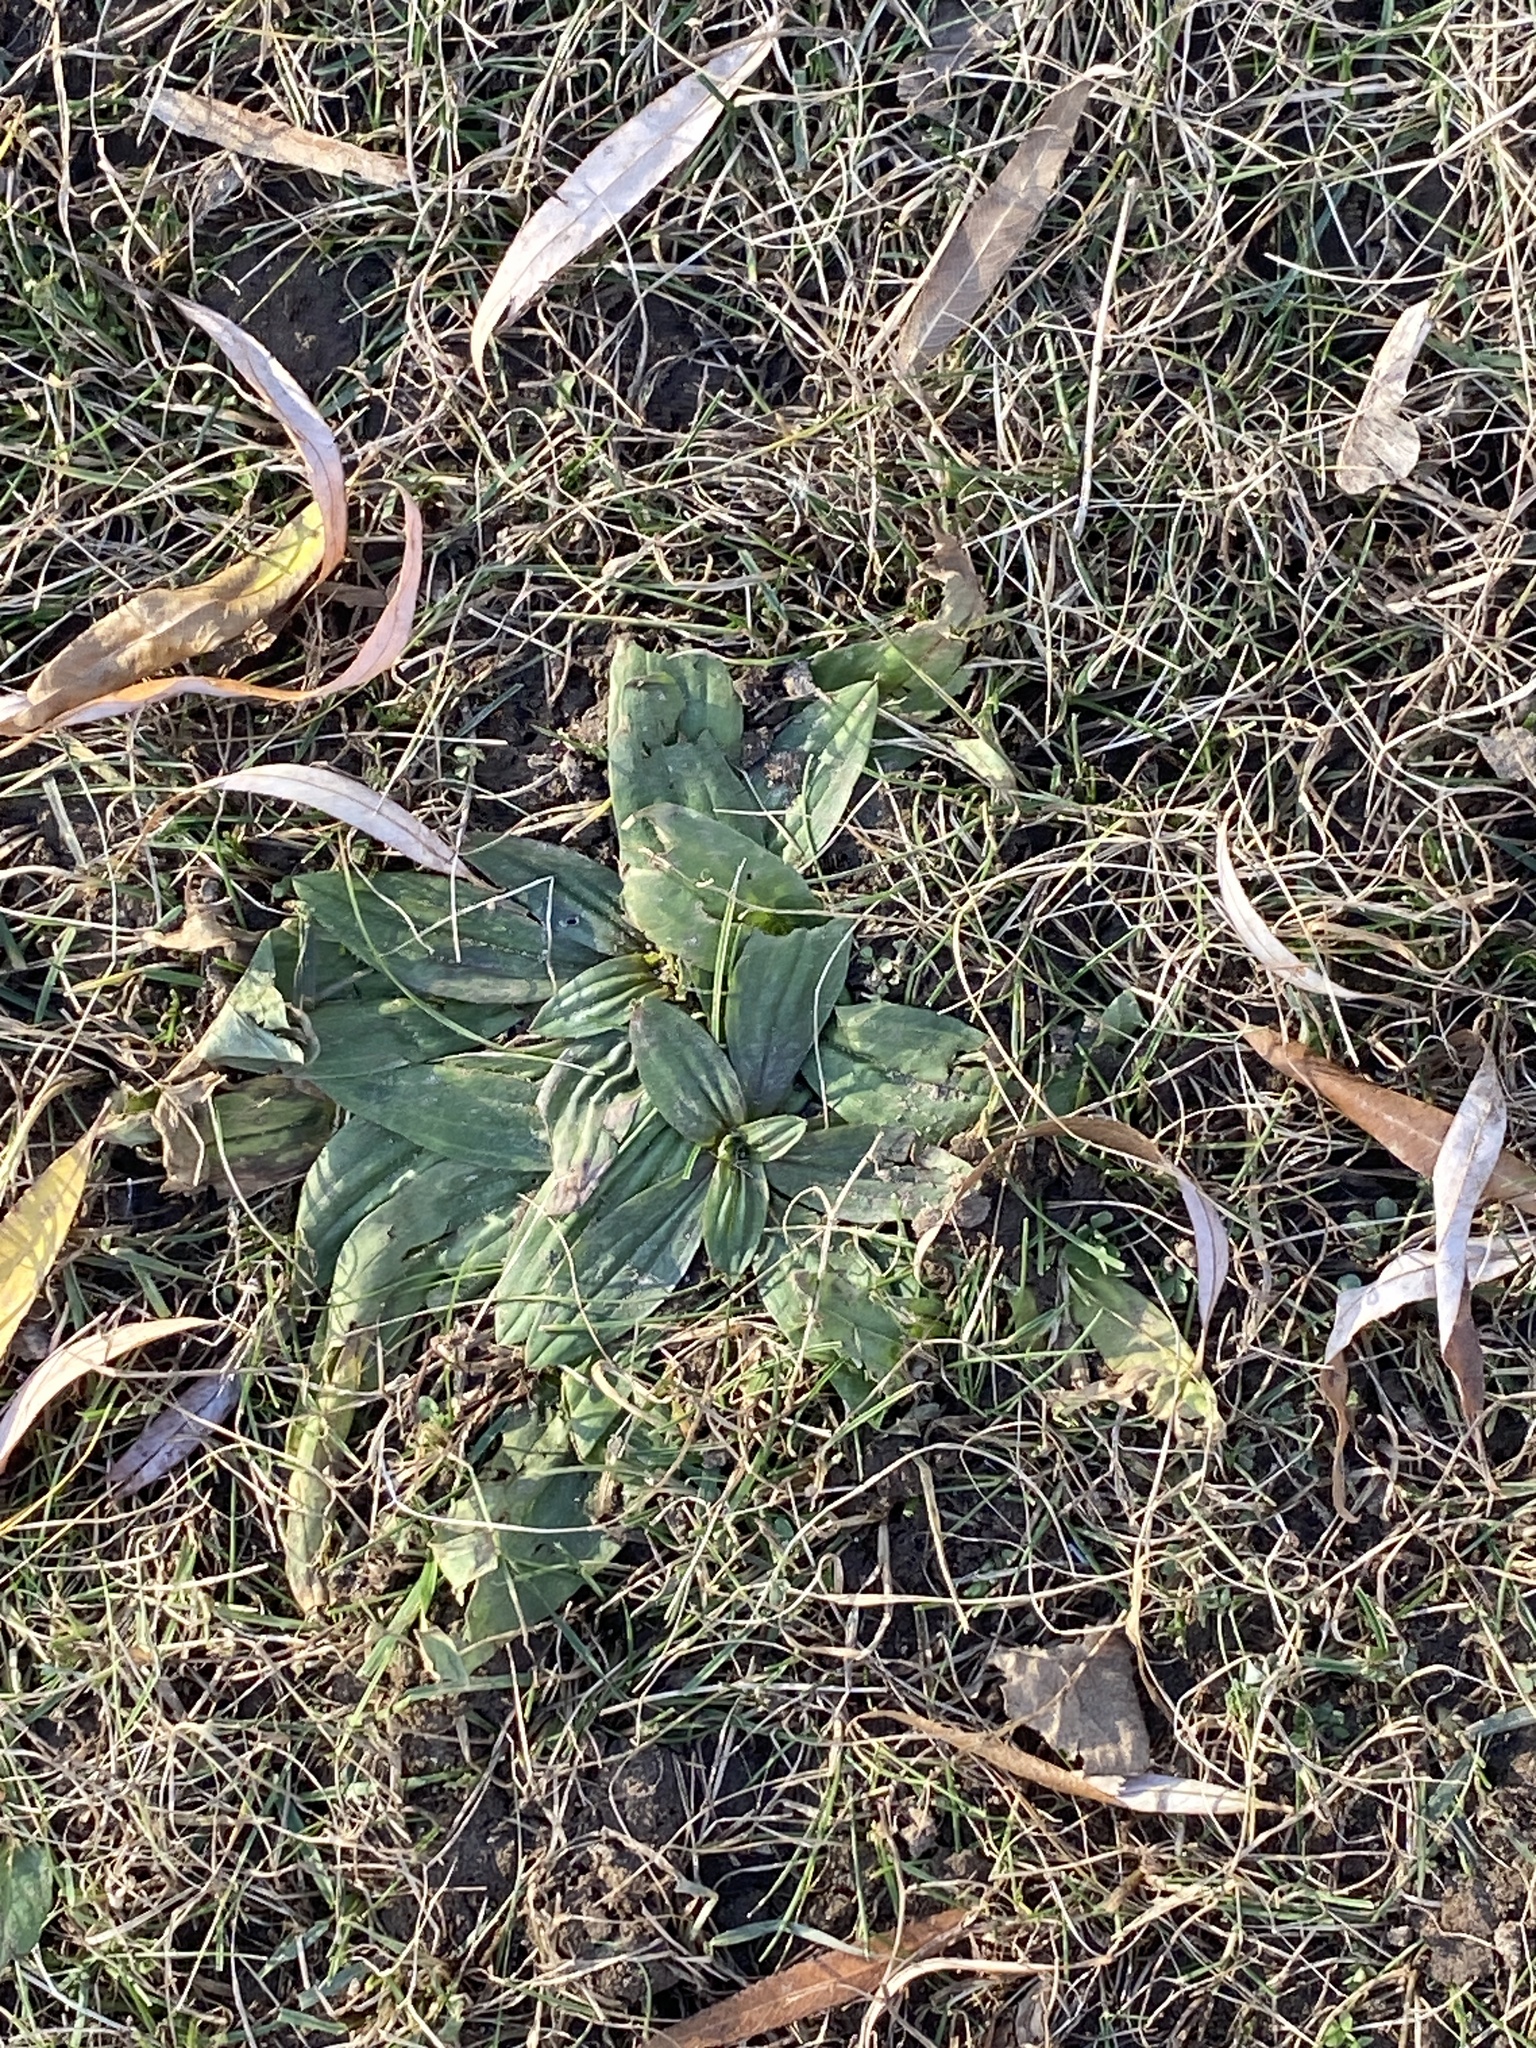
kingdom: Plantae
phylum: Tracheophyta
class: Magnoliopsida
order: Lamiales
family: Plantaginaceae
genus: Plantago
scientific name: Plantago lanceolata
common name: Ribwort plantain
